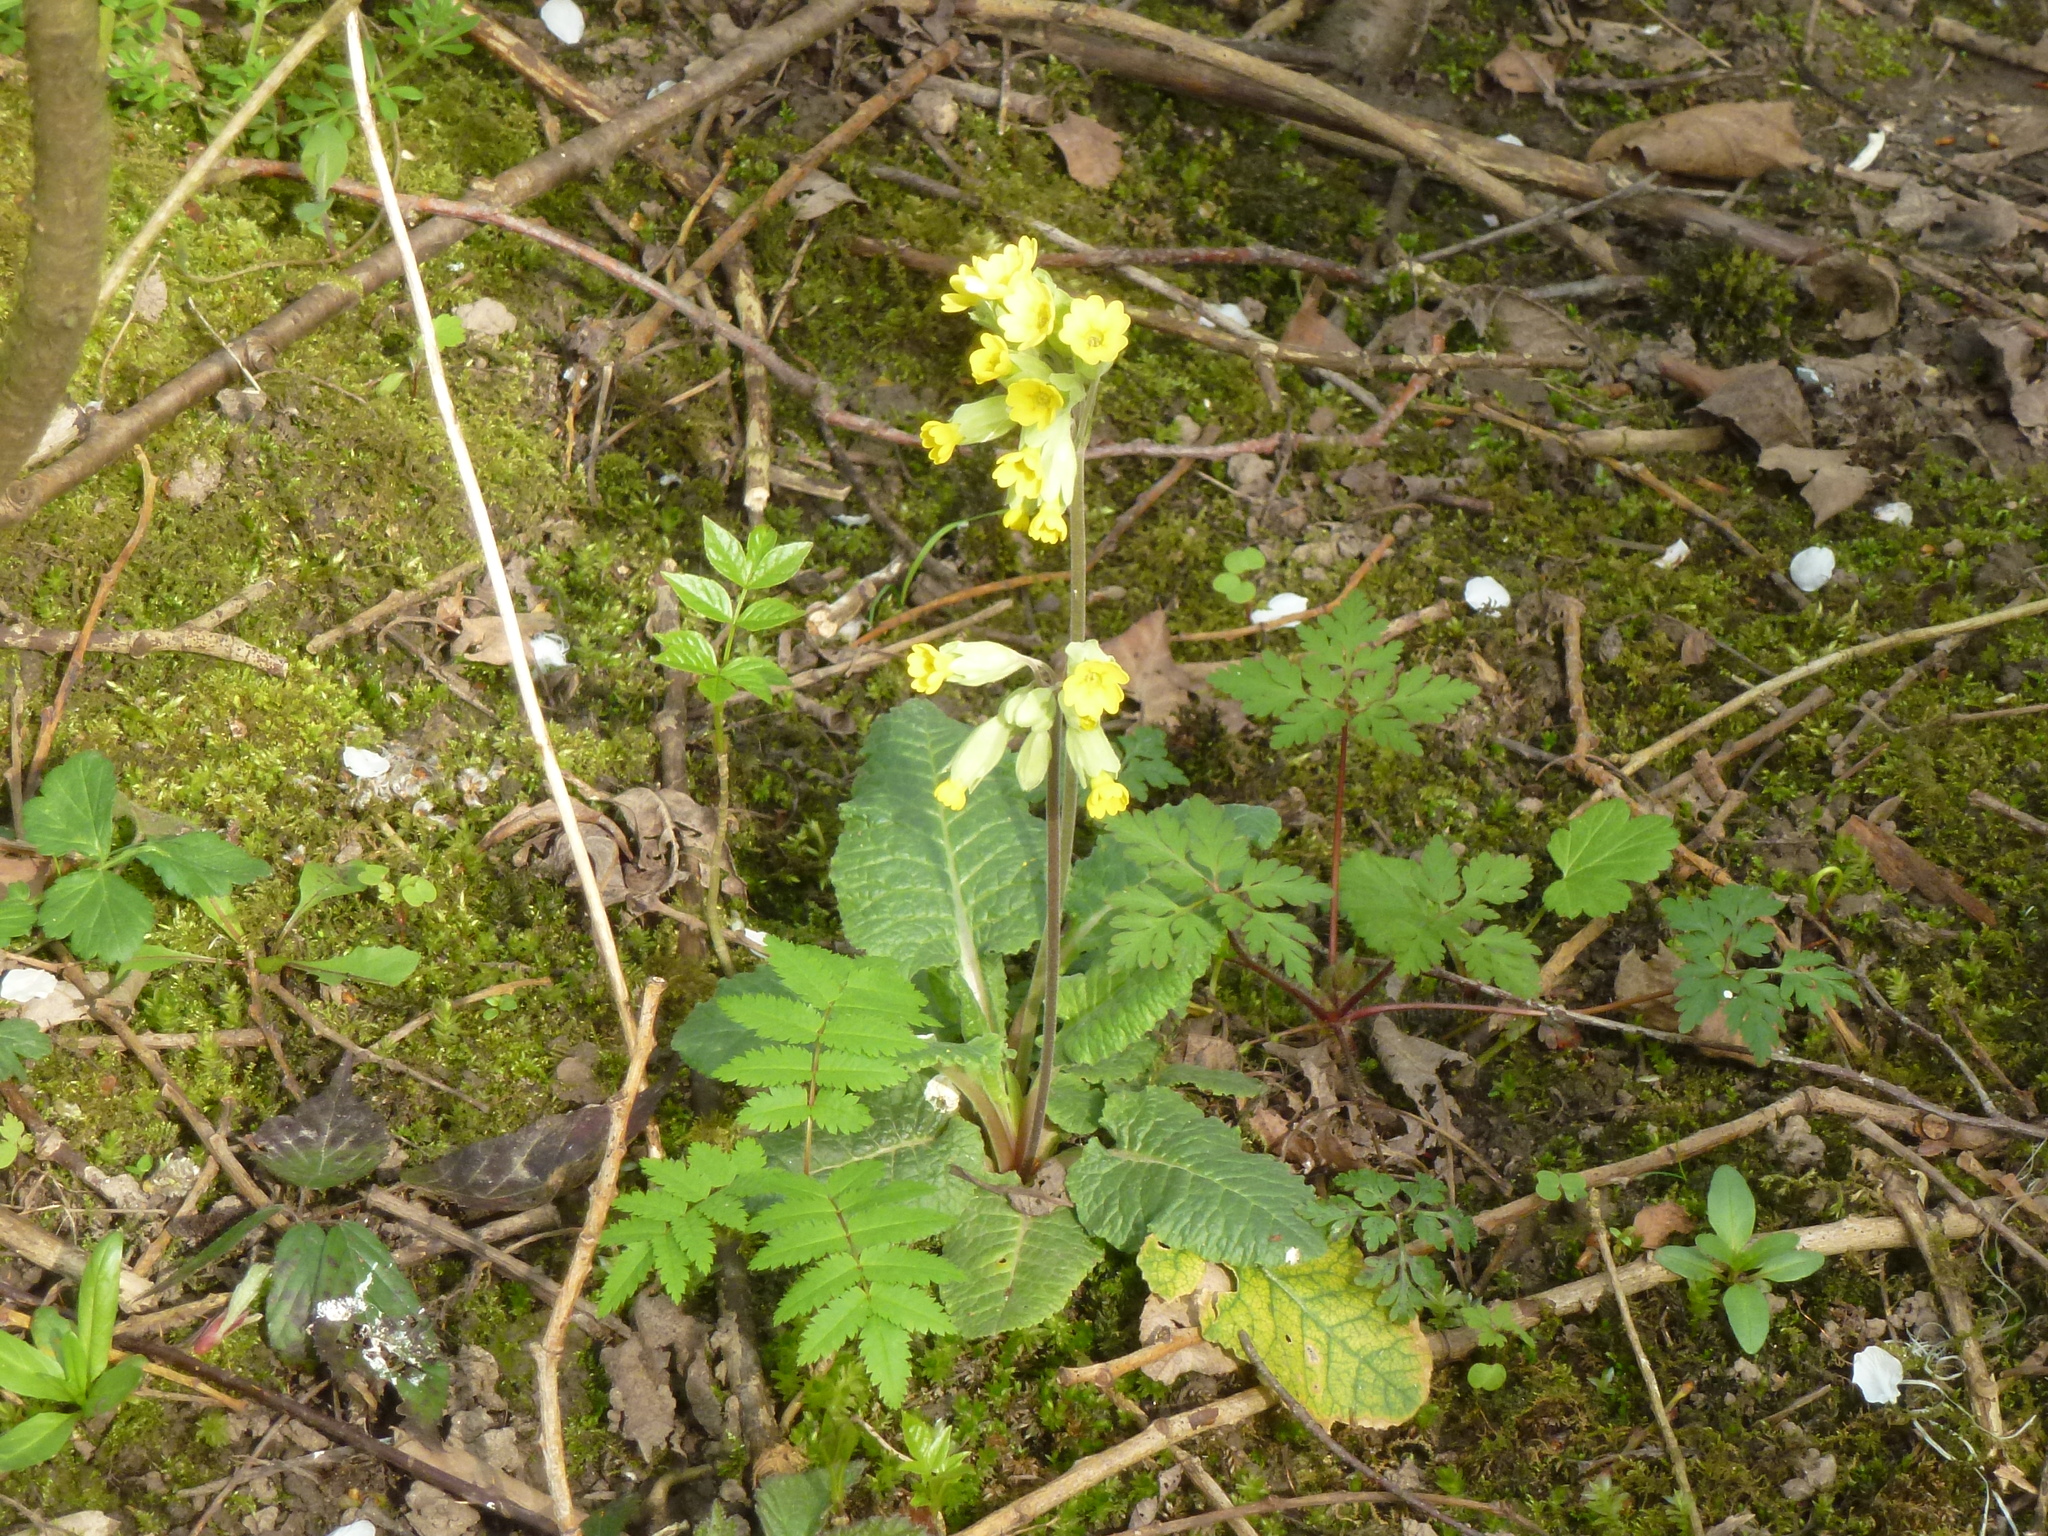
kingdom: Plantae
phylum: Tracheophyta
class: Magnoliopsida
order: Ericales
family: Primulaceae
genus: Primula
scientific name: Primula veris
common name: Cowslip
